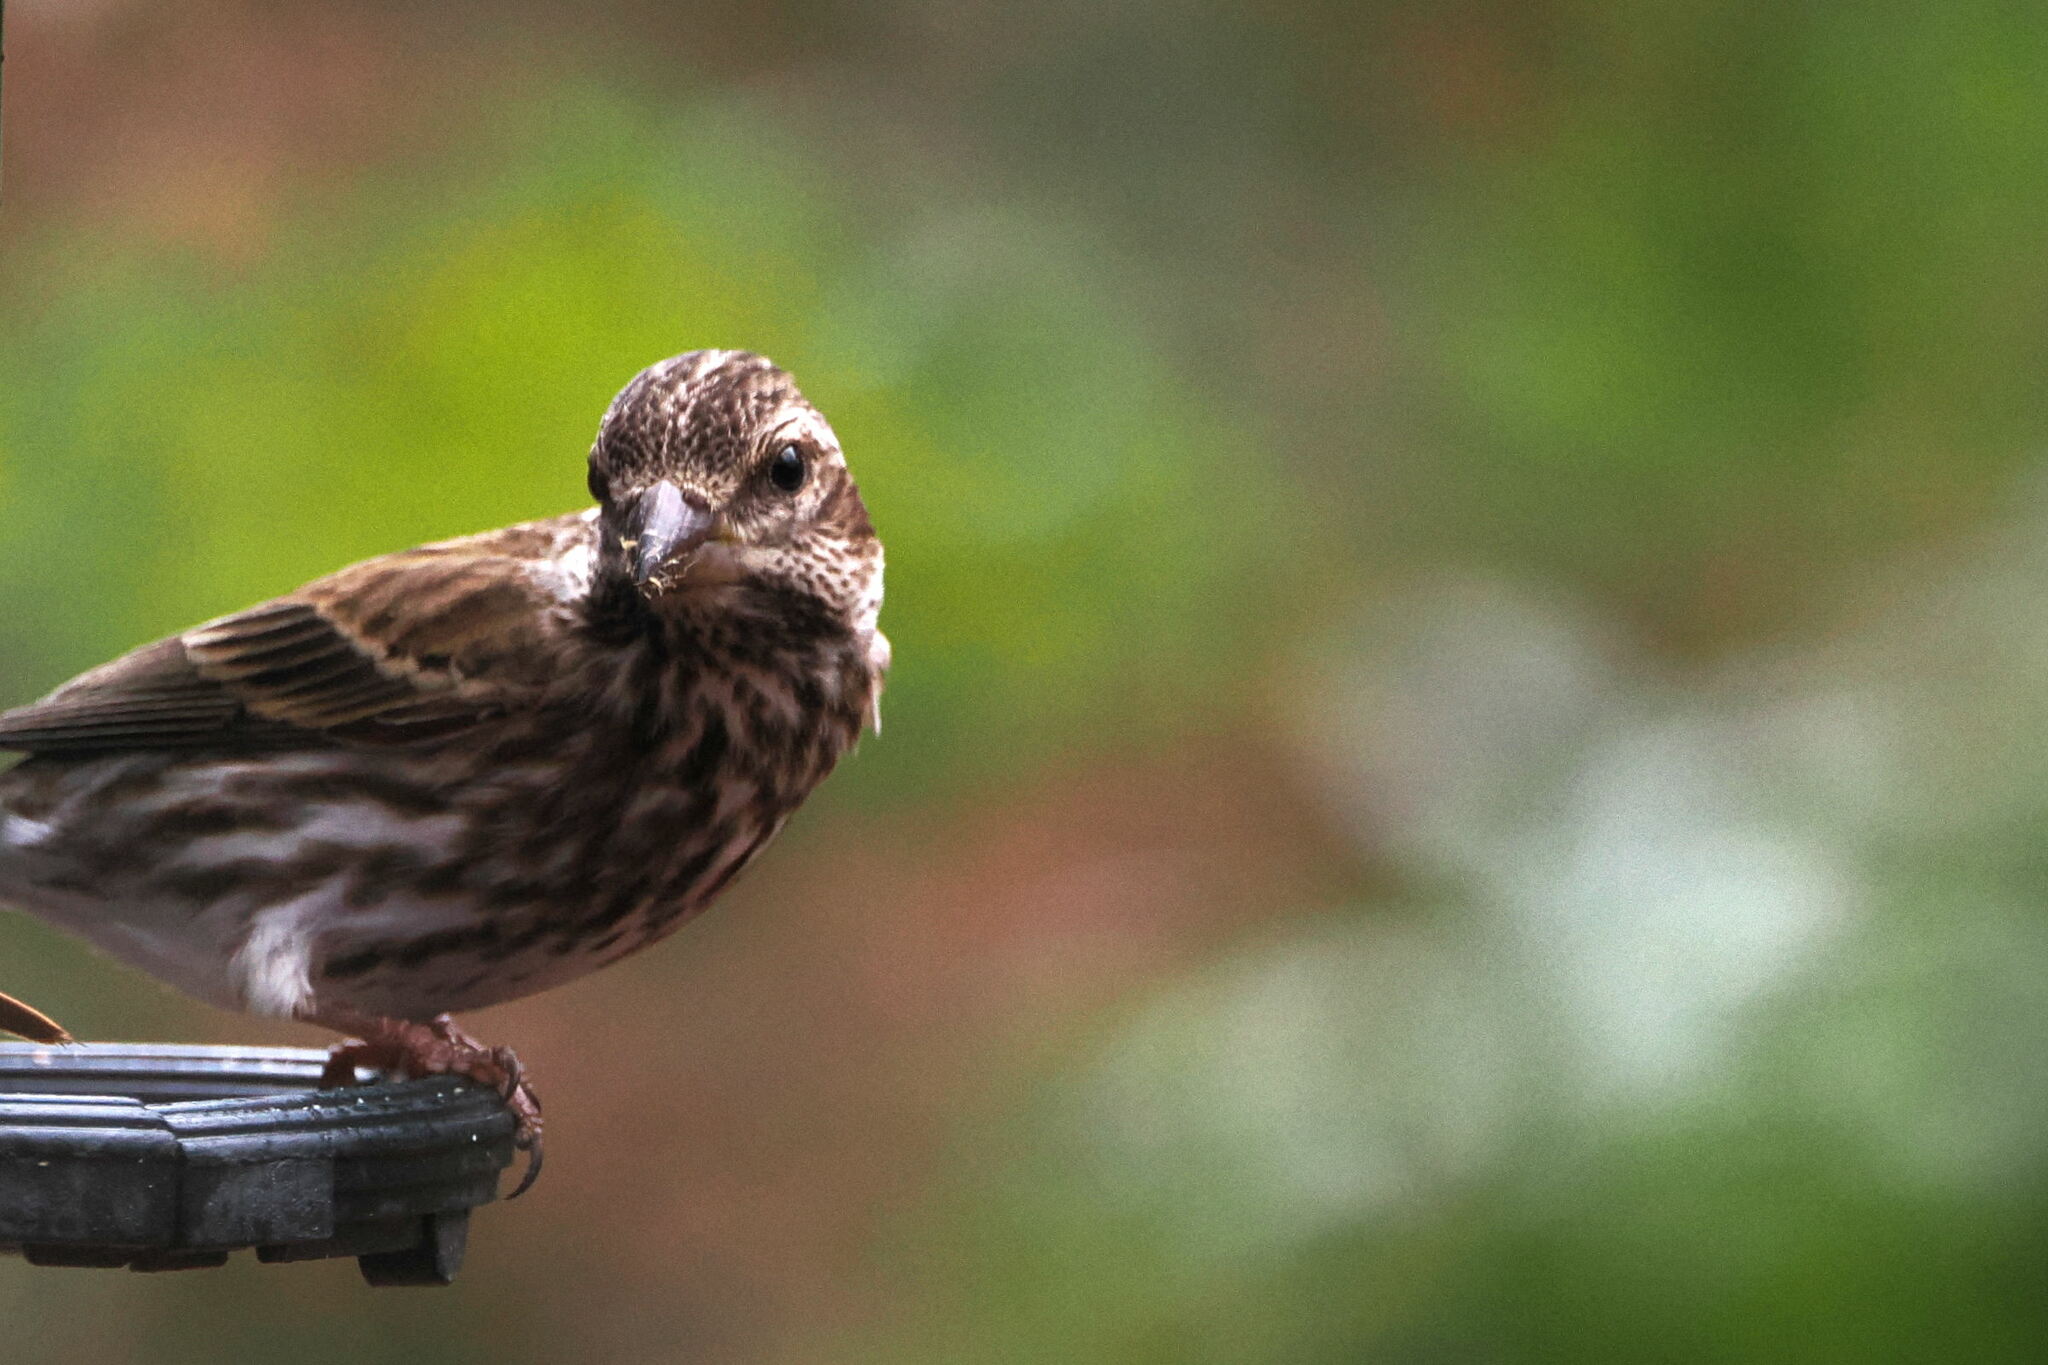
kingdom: Animalia
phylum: Chordata
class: Aves
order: Passeriformes
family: Fringillidae
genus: Haemorhous
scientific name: Haemorhous purpureus
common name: Purple finch
